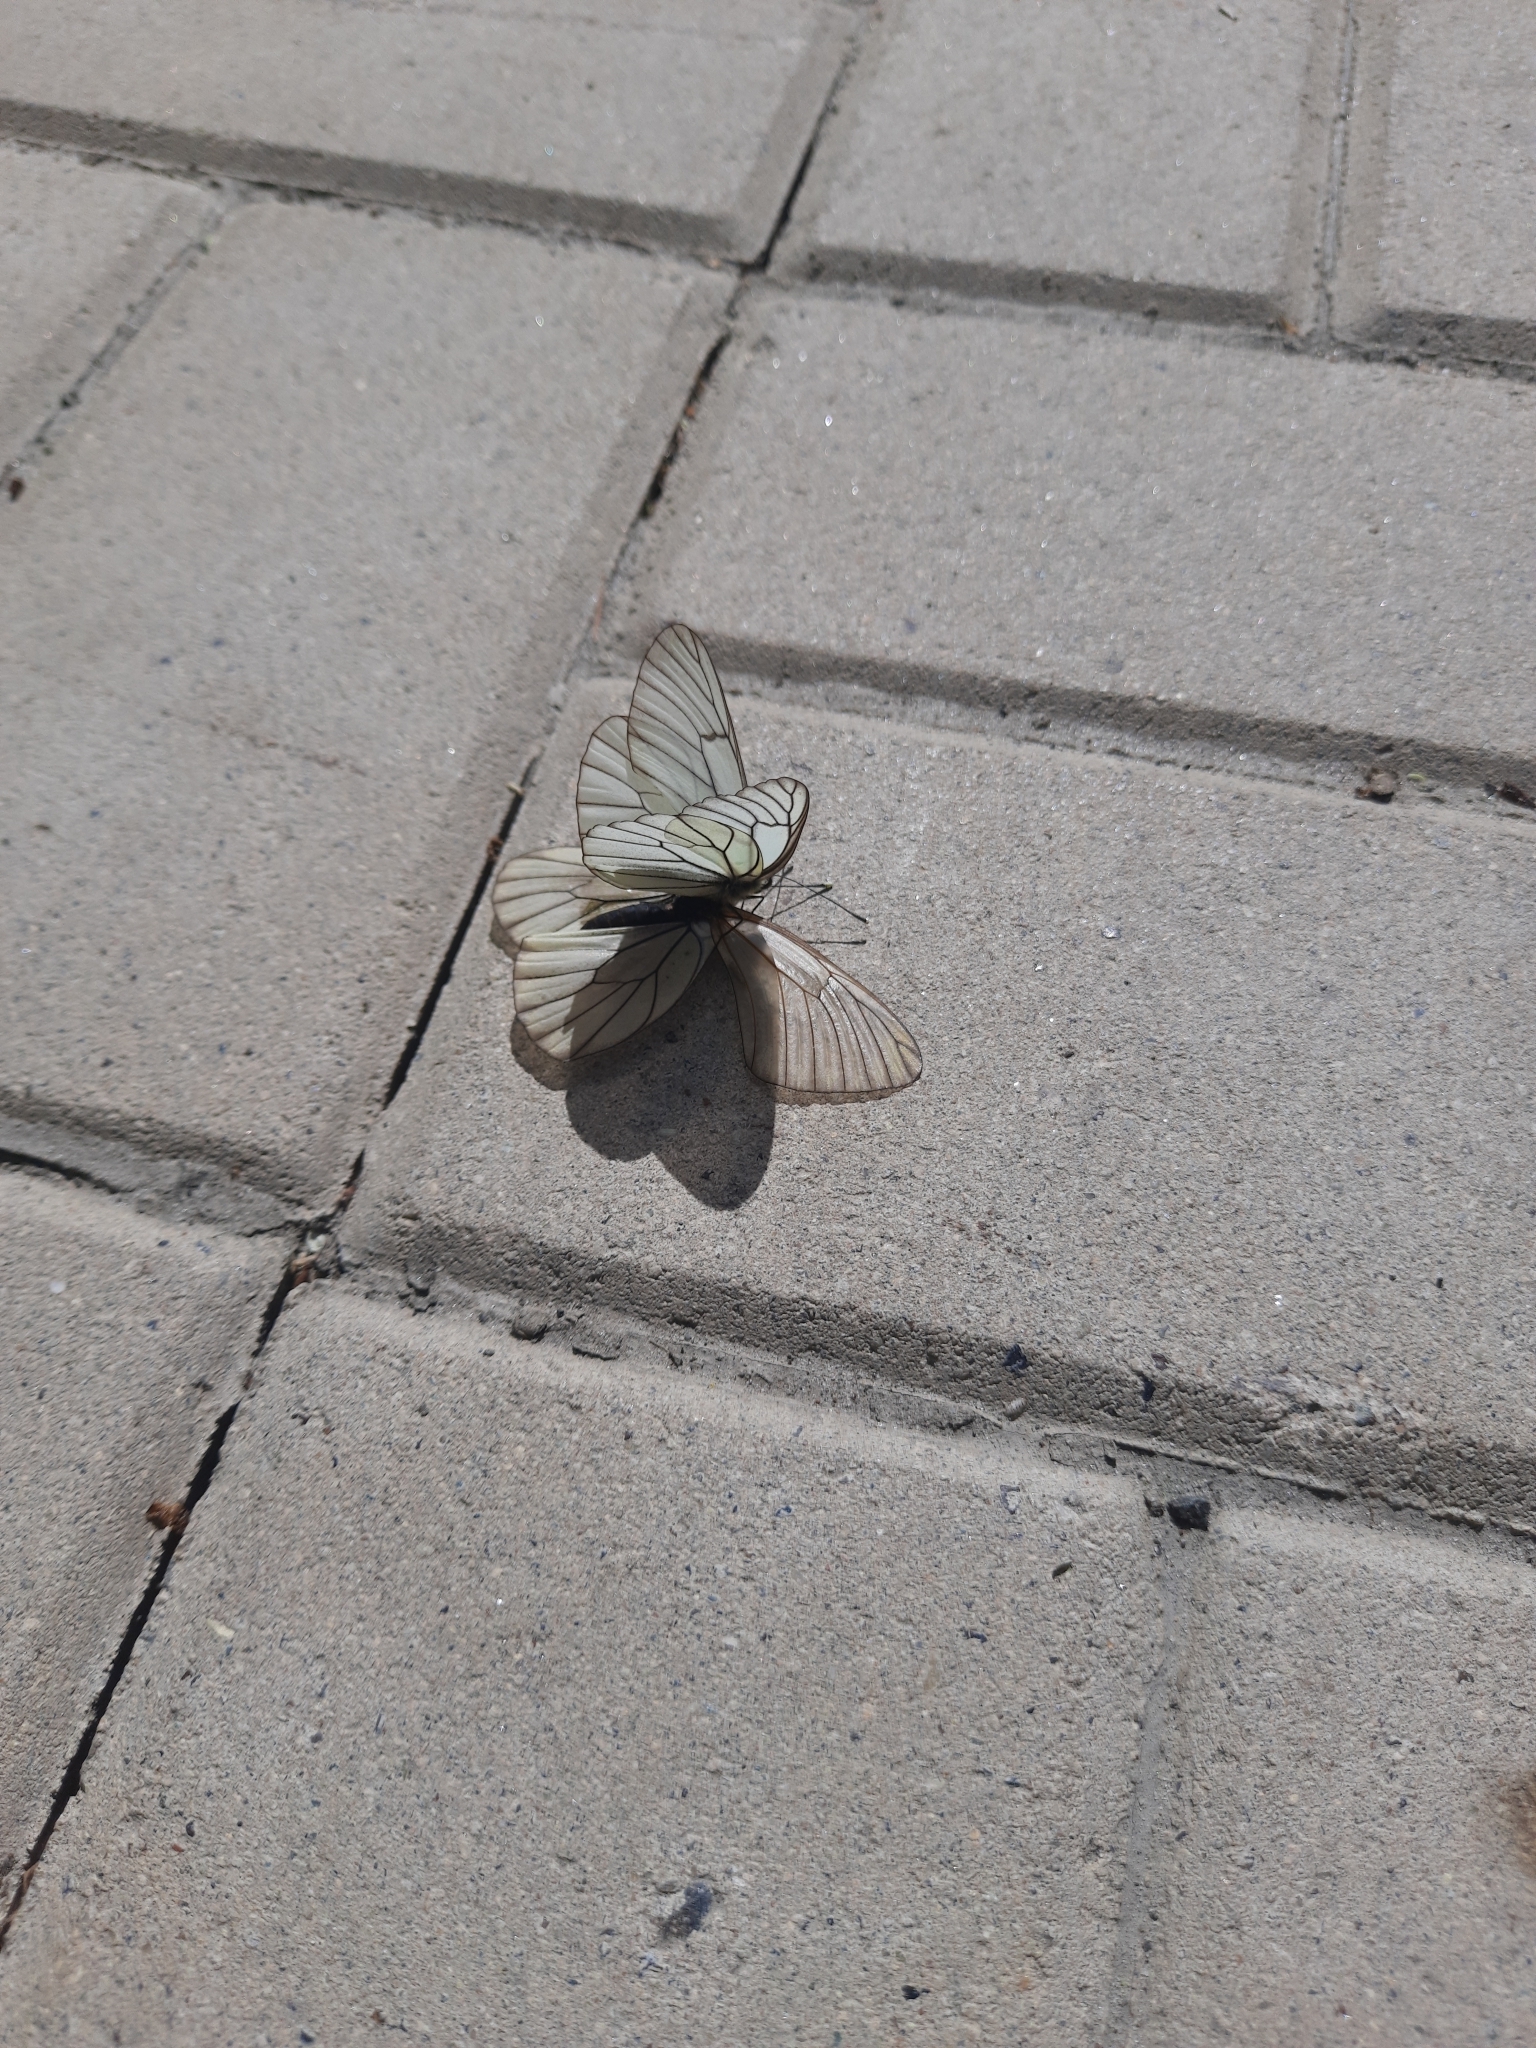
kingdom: Animalia
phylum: Arthropoda
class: Insecta
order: Lepidoptera
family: Pieridae
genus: Aporia
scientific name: Aporia crataegi
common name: Black-veined white
